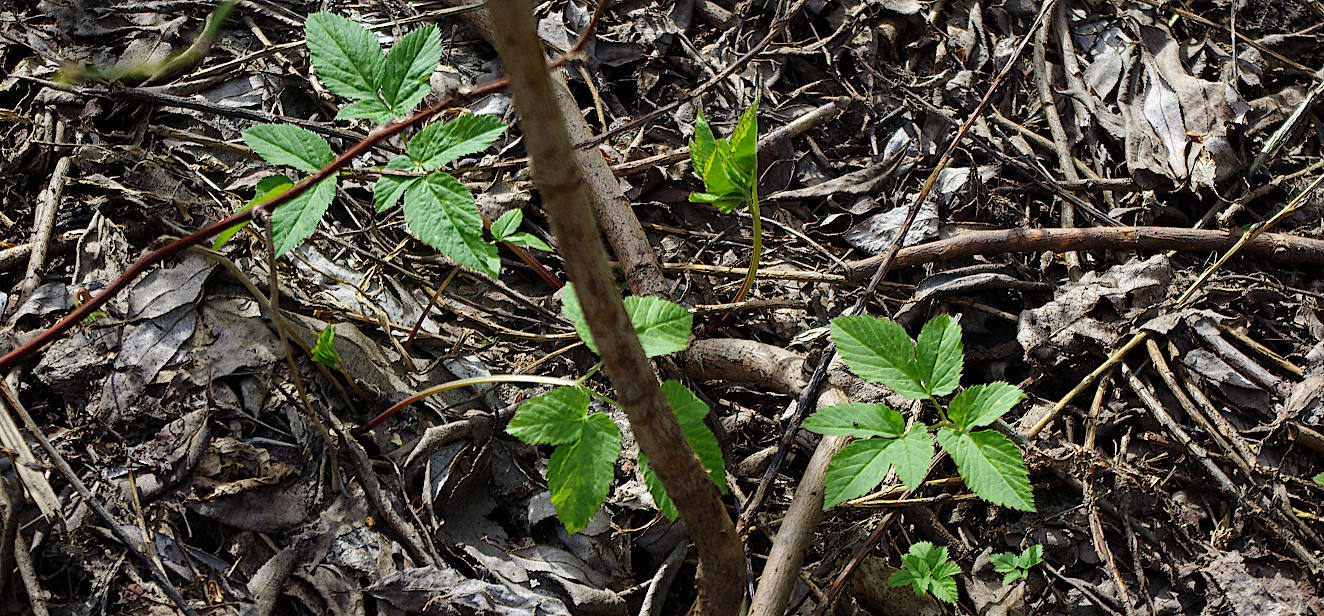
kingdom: Plantae
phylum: Tracheophyta
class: Magnoliopsida
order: Apiales
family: Apiaceae
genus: Aegopodium
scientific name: Aegopodium podagraria
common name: Ground-elder
